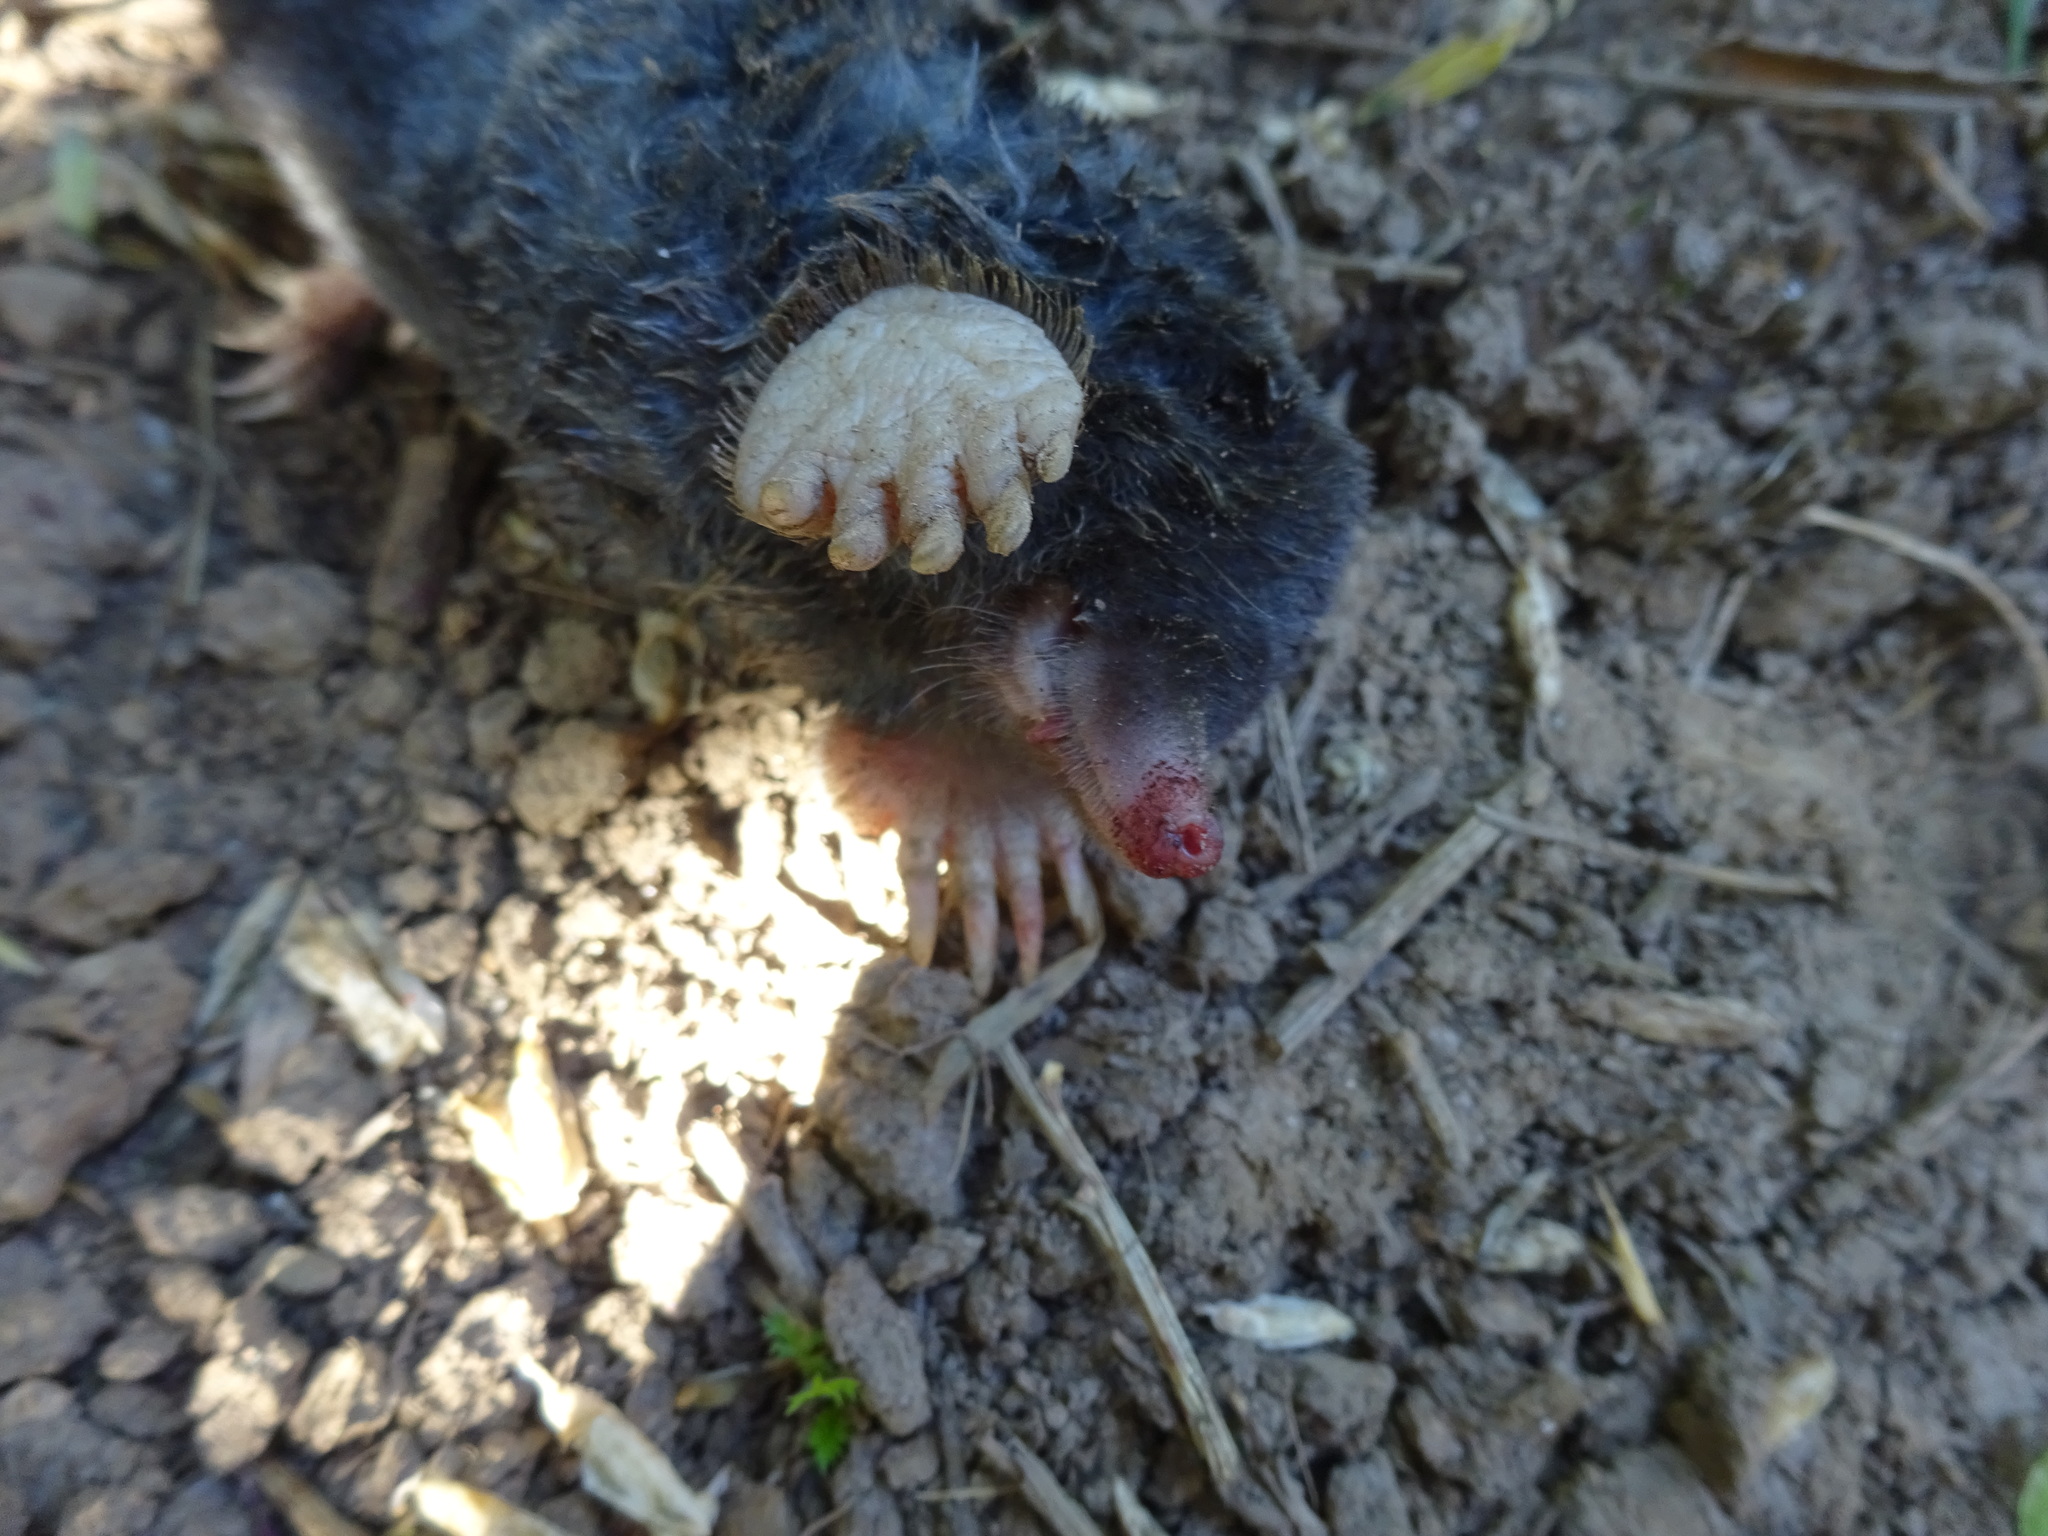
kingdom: Animalia
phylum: Chordata
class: Mammalia
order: Soricomorpha
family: Talpidae
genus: Talpa
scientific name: Talpa occidentalis
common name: Iberian mole
